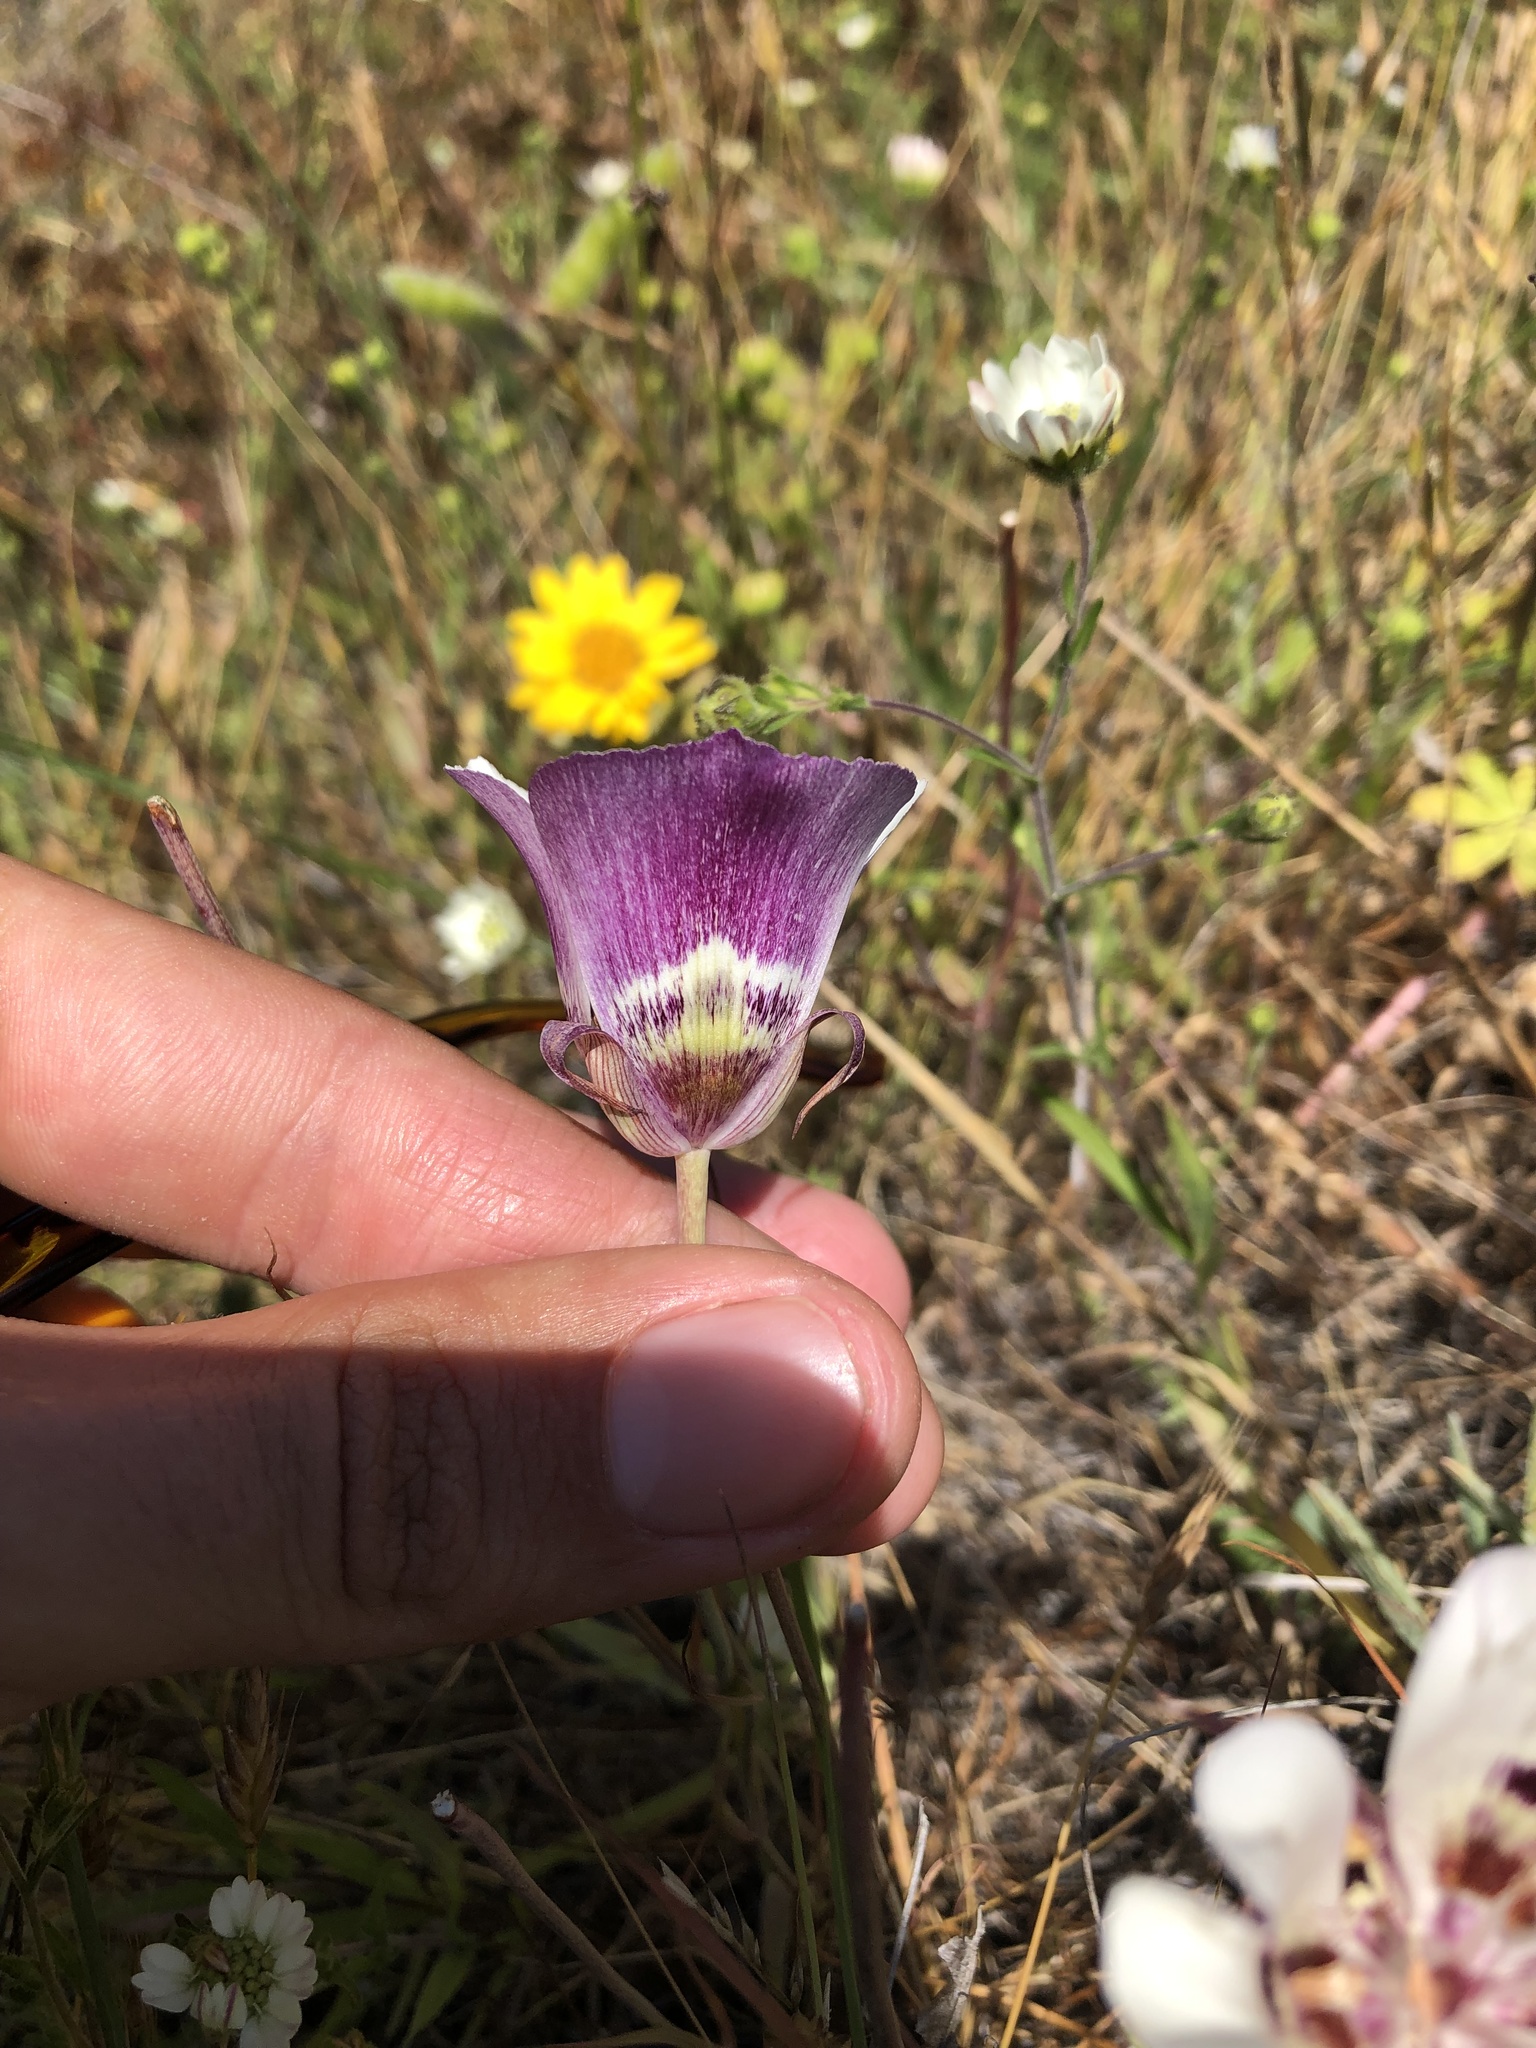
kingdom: Plantae
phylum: Tracheophyta
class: Liliopsida
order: Liliales
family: Liliaceae
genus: Calochortus
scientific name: Calochortus argillosus
